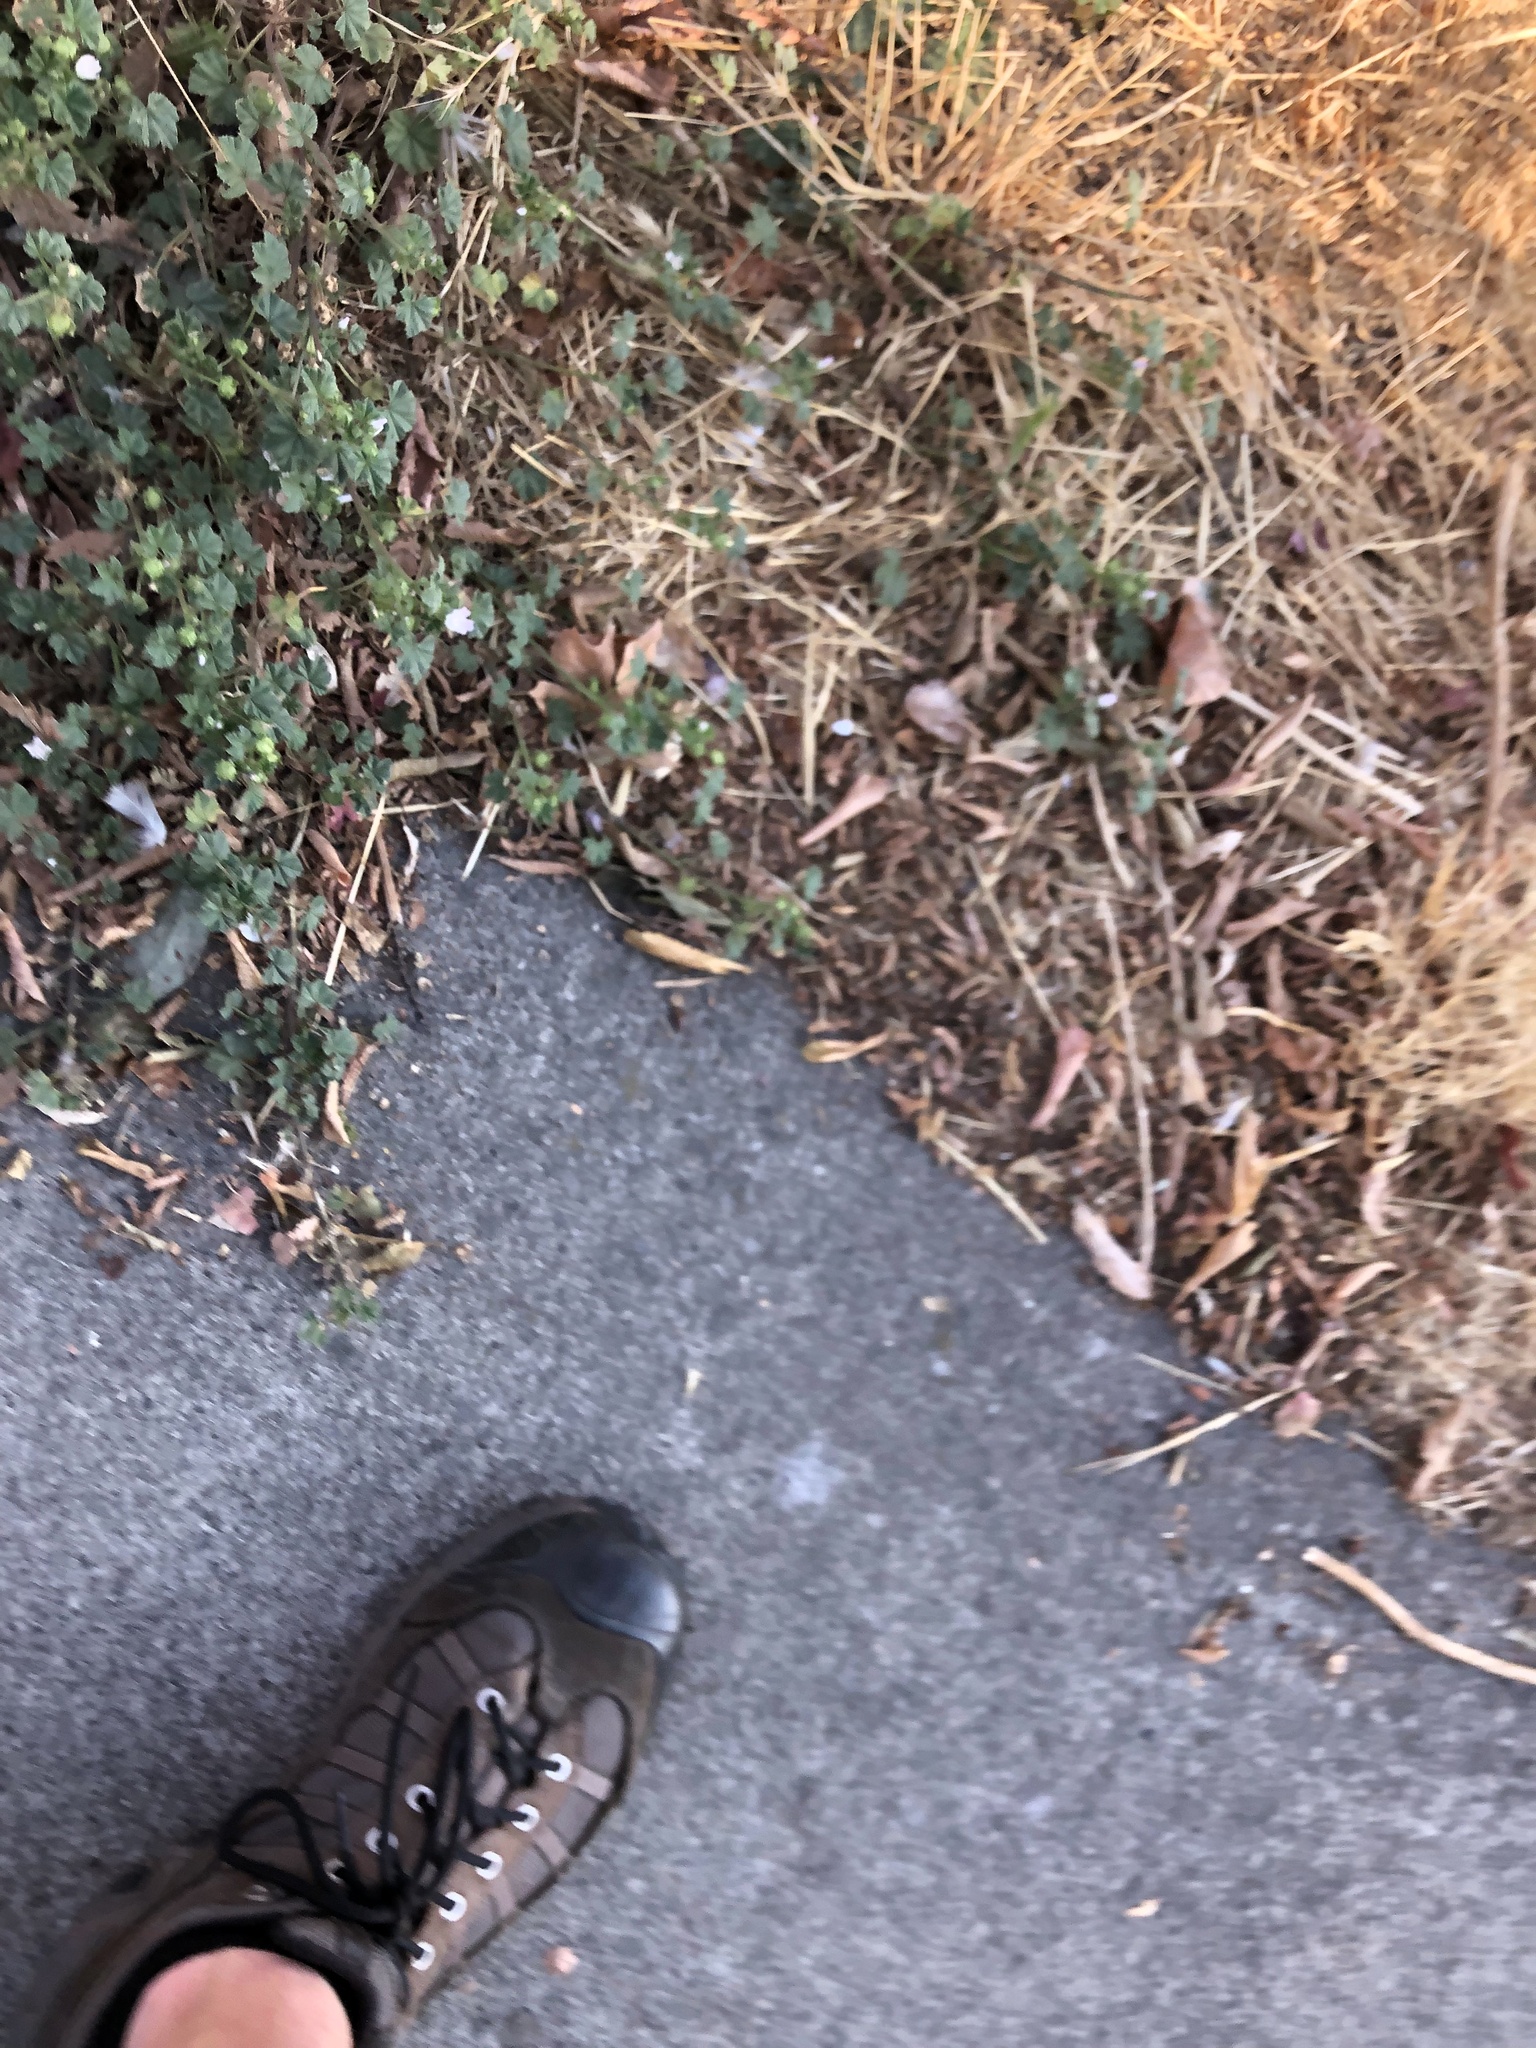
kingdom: Plantae
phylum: Tracheophyta
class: Magnoliopsida
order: Malvales
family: Malvaceae
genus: Malva
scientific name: Malva neglecta
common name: Common mallow
